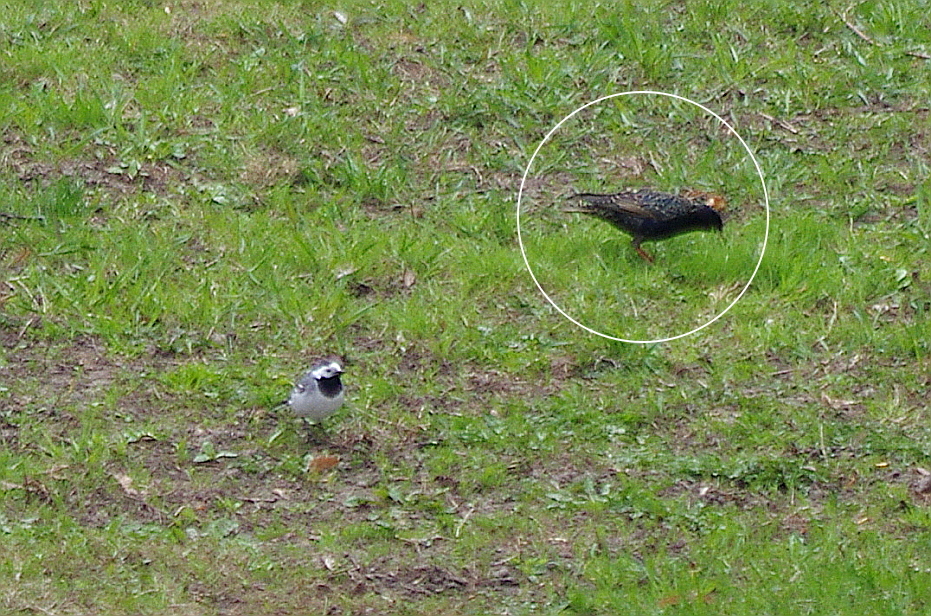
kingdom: Animalia
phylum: Chordata
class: Aves
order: Passeriformes
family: Sturnidae
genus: Sturnus
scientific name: Sturnus vulgaris
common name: Common starling
